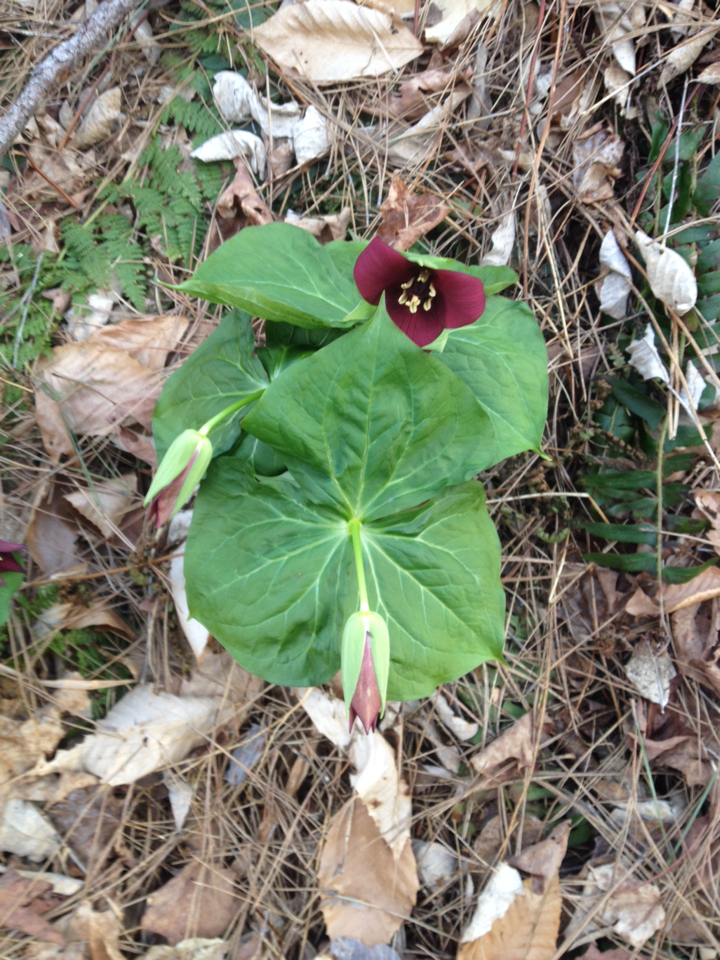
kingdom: Plantae
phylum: Tracheophyta
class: Liliopsida
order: Liliales
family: Melanthiaceae
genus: Trillium
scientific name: Trillium erectum
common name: Purple trillium
